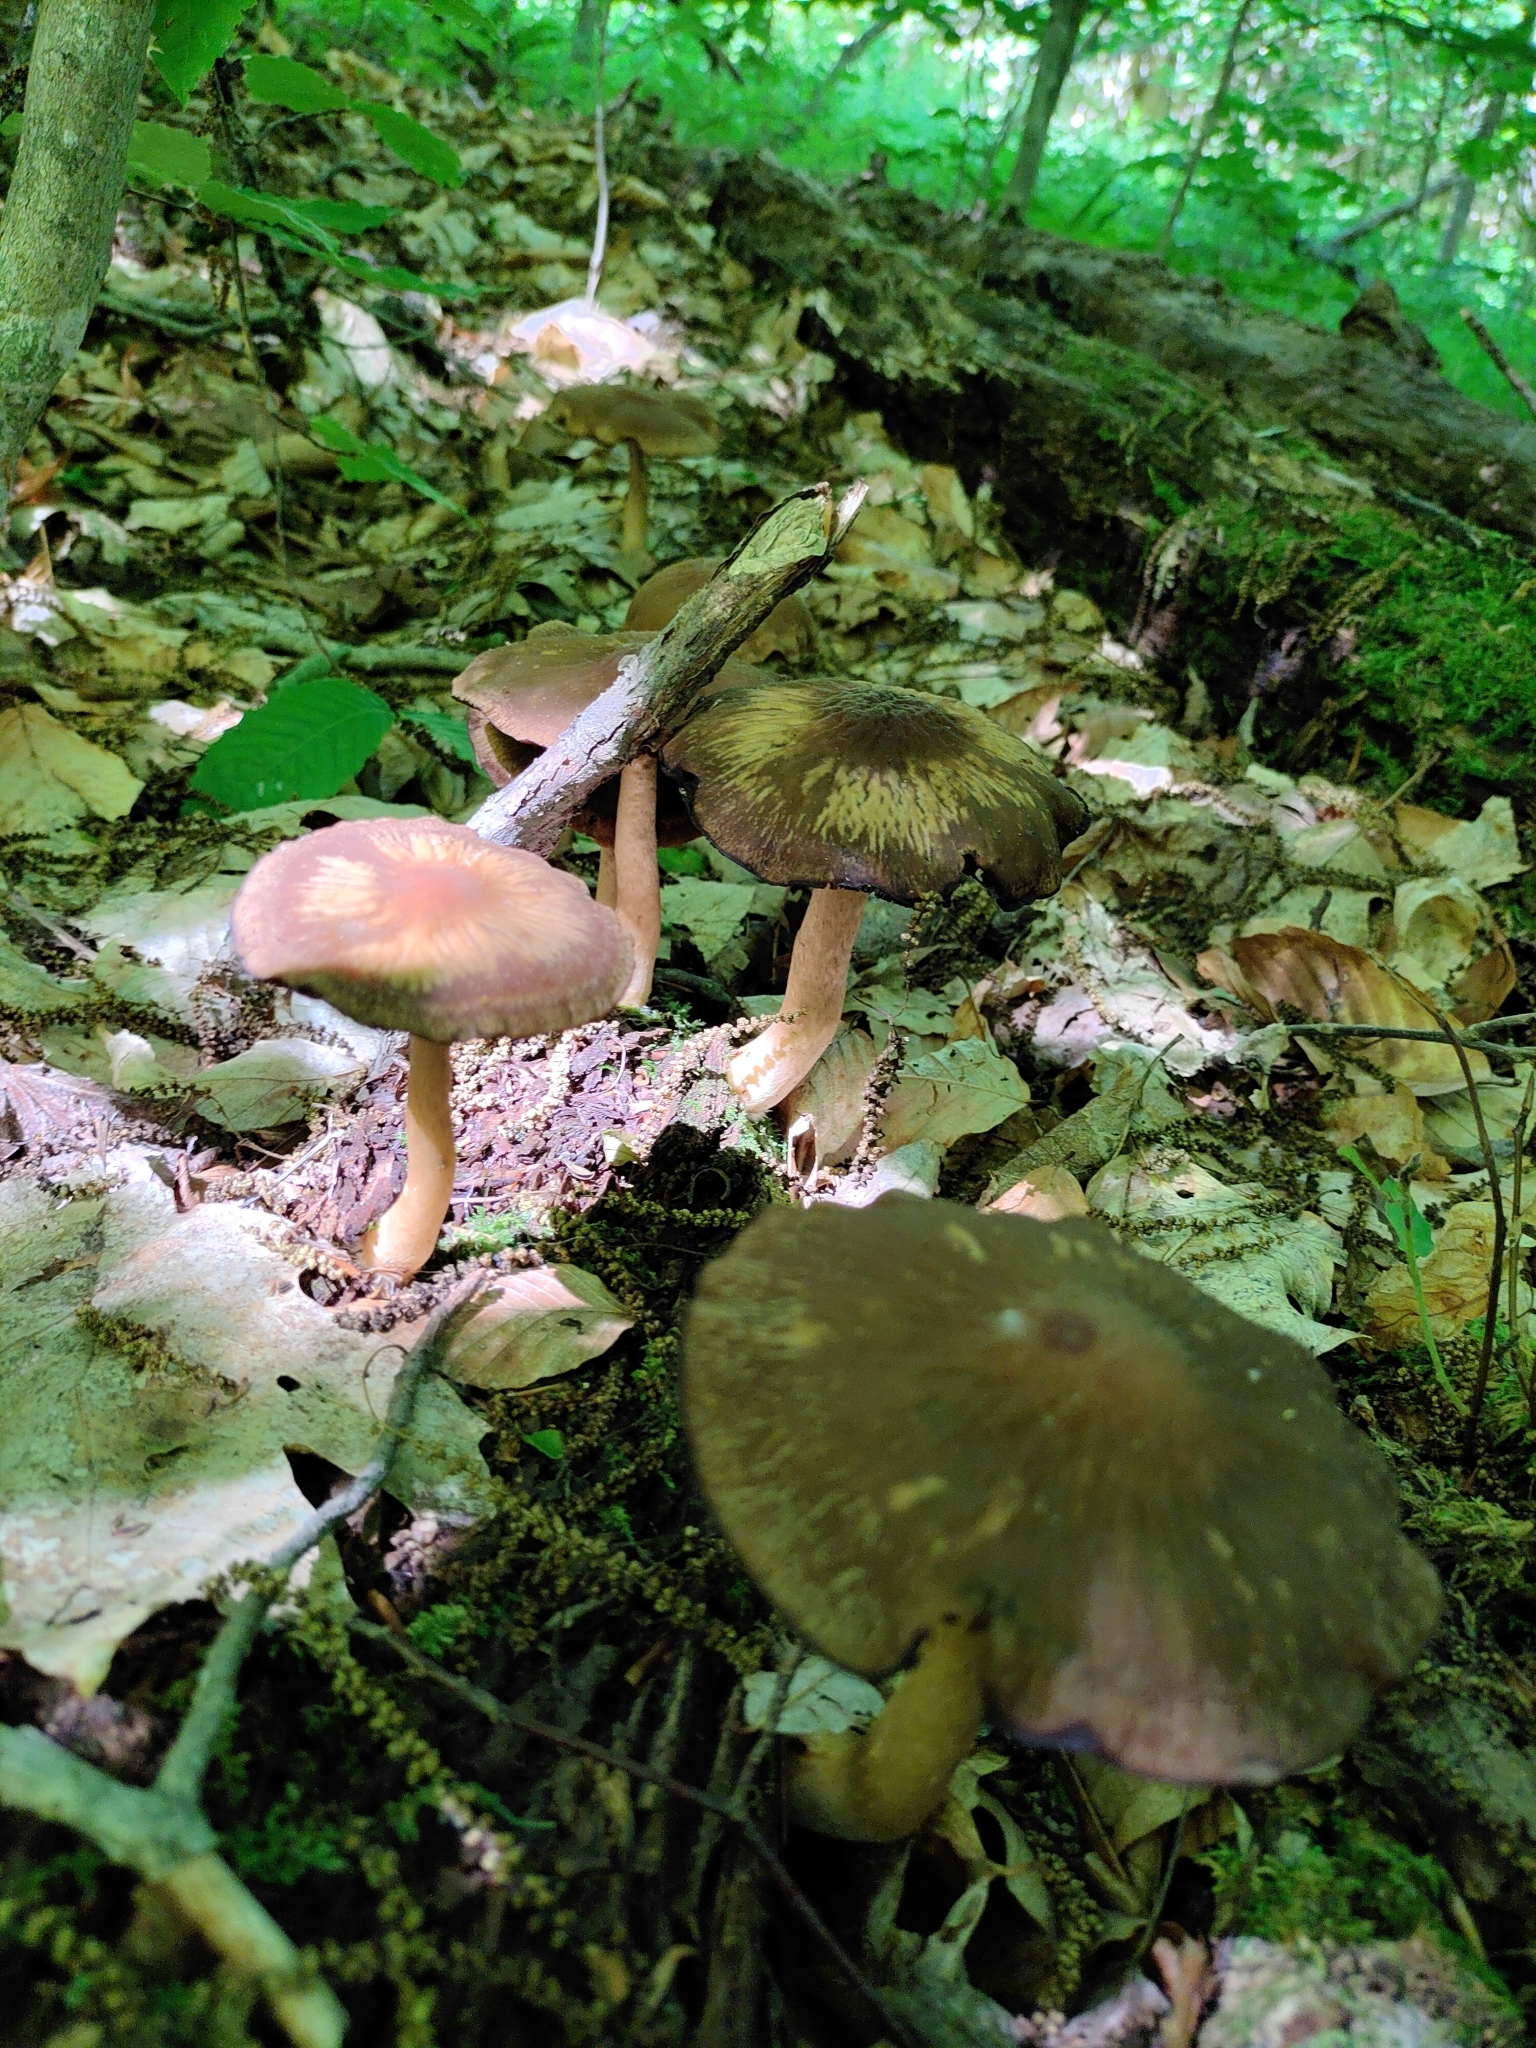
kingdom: Fungi
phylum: Basidiomycota
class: Agaricomycetes
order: Agaricales
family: Psathyrellaceae
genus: Typhrasa
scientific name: Typhrasa gossypina
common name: Wrinkled psathyrella
